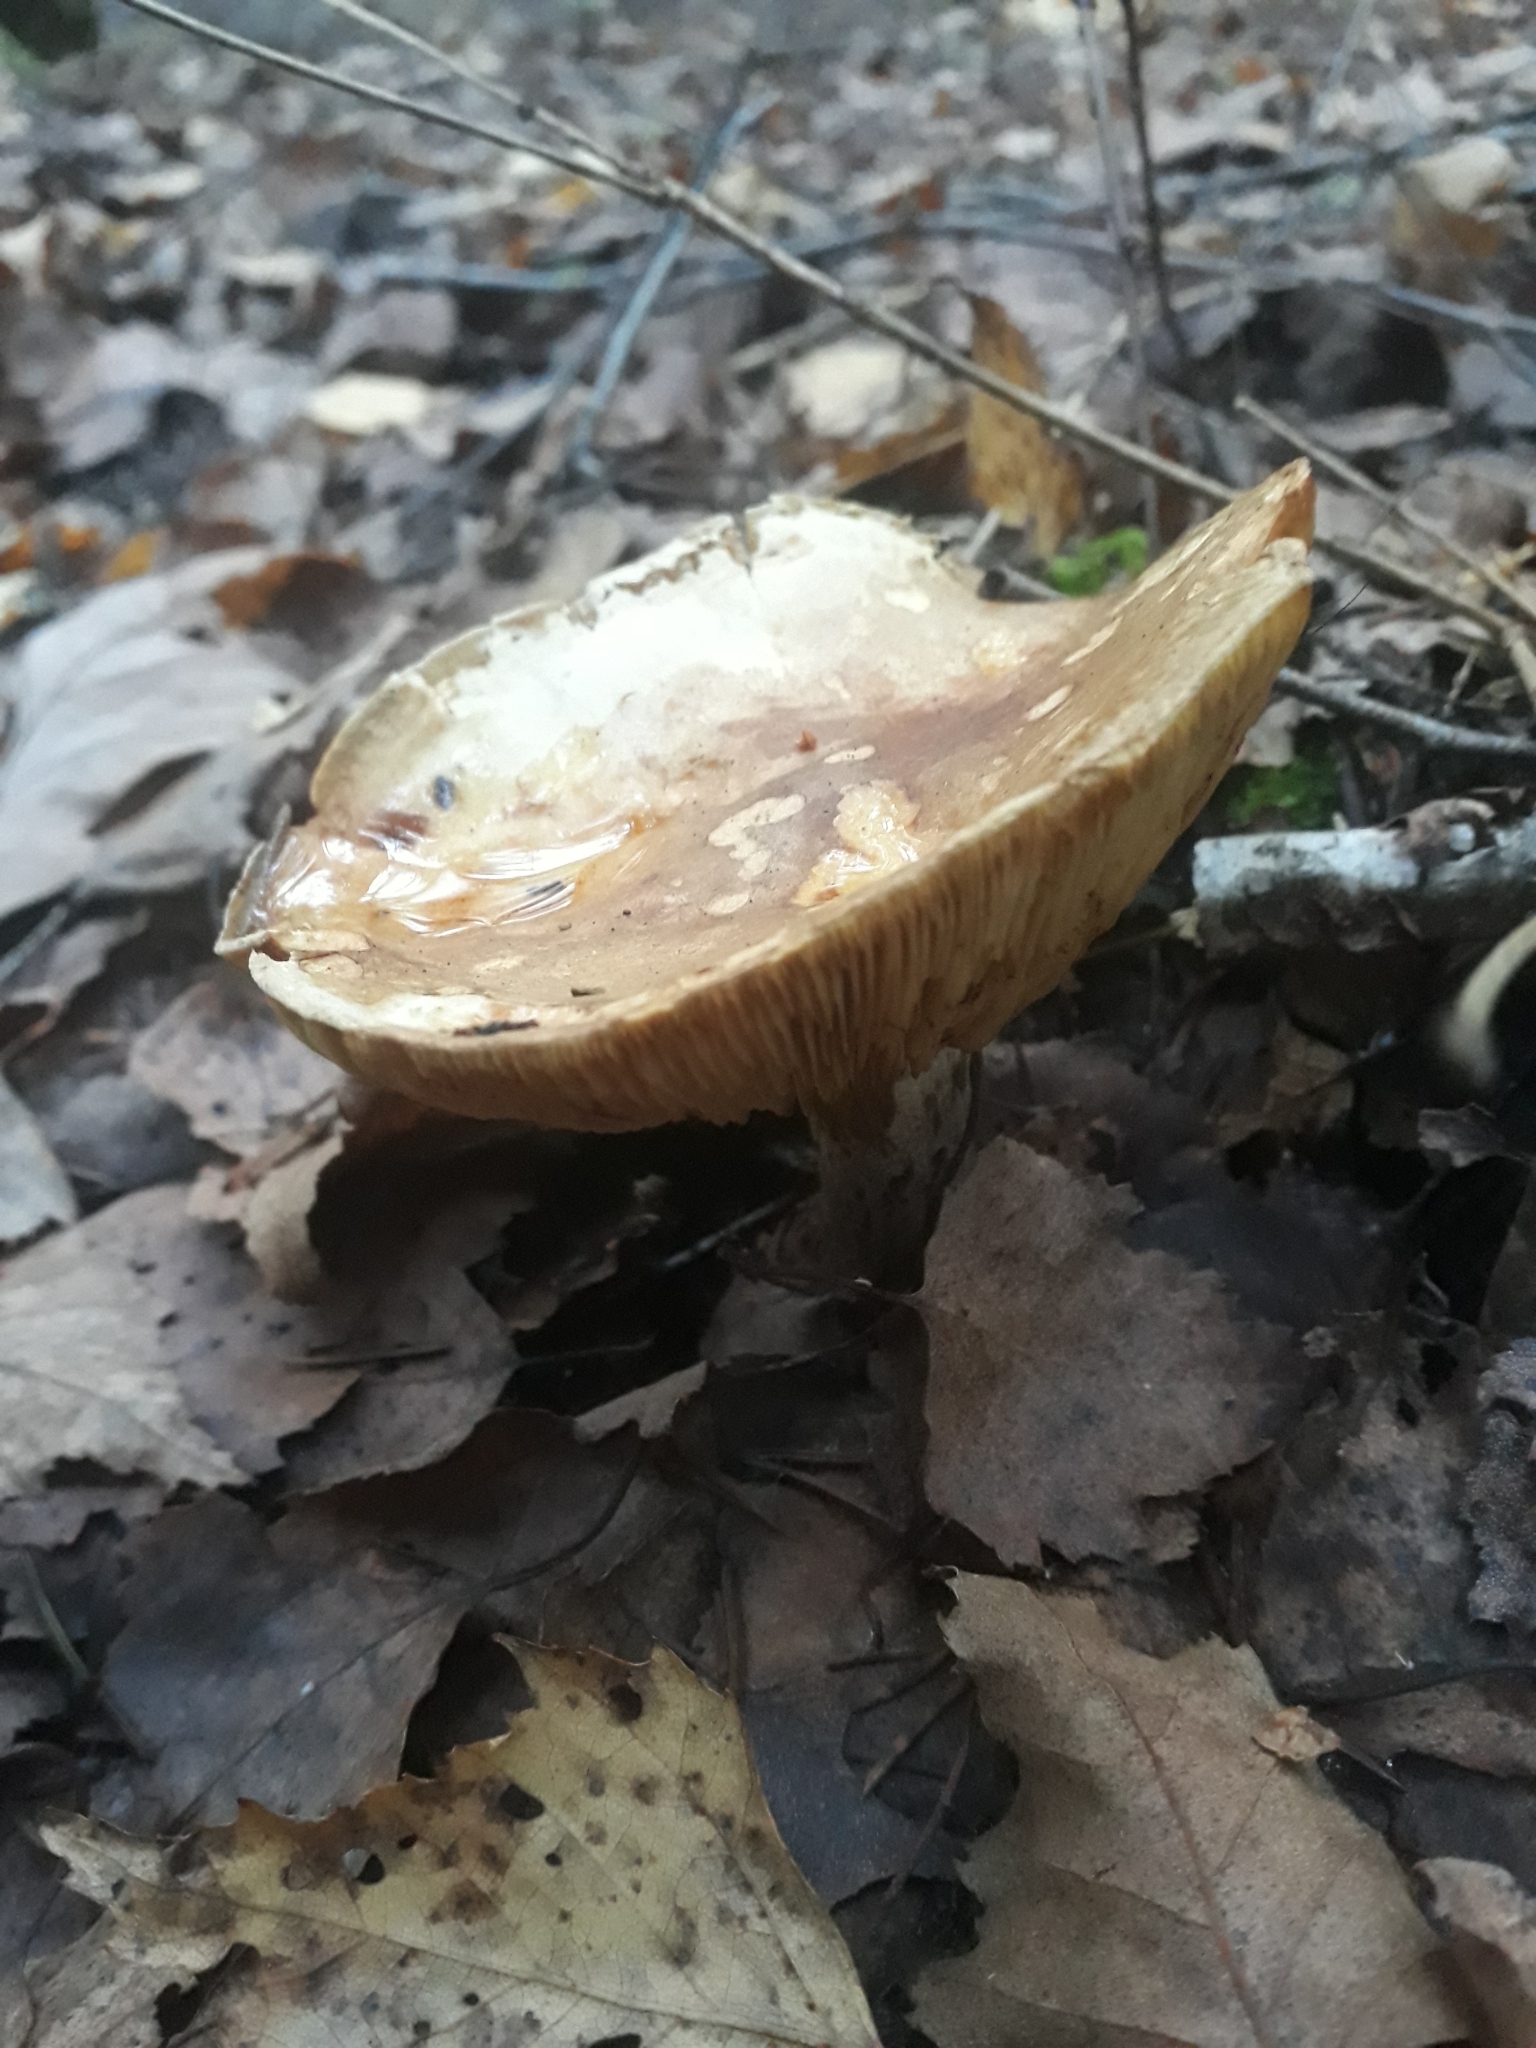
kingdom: Fungi
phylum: Basidiomycota
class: Agaricomycetes
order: Boletales
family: Paxillaceae
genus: Paxillus
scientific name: Paxillus involutus
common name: Brown roll rim
